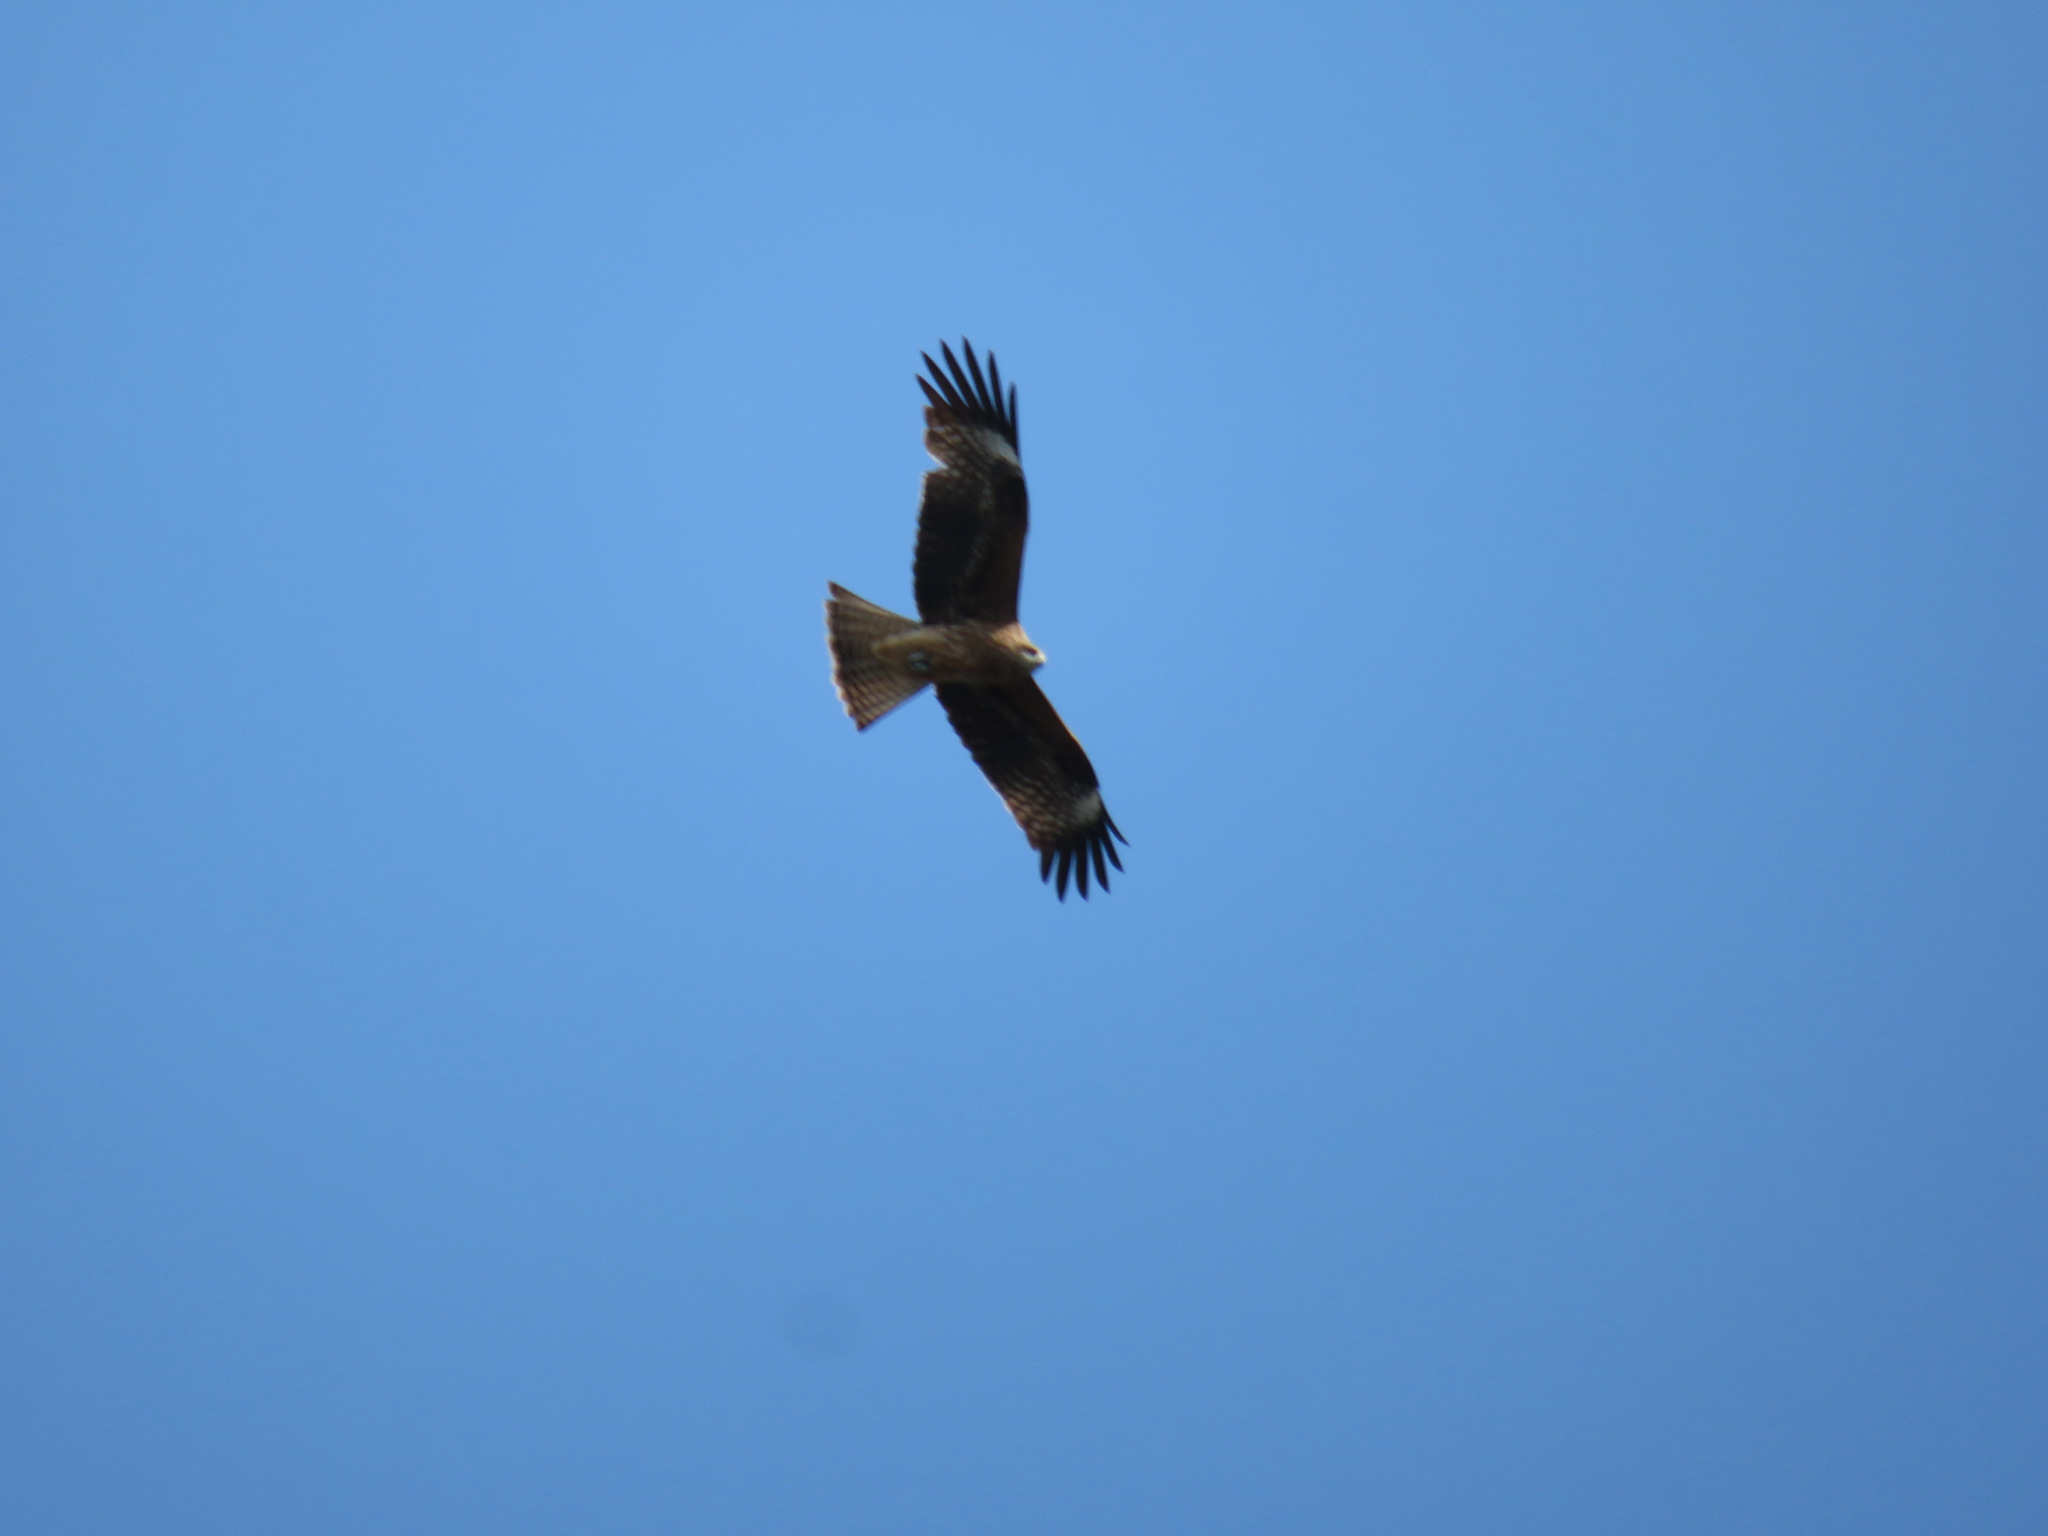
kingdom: Animalia
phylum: Chordata
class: Aves
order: Accipitriformes
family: Accipitridae
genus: Milvus
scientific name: Milvus migrans
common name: Black kite
